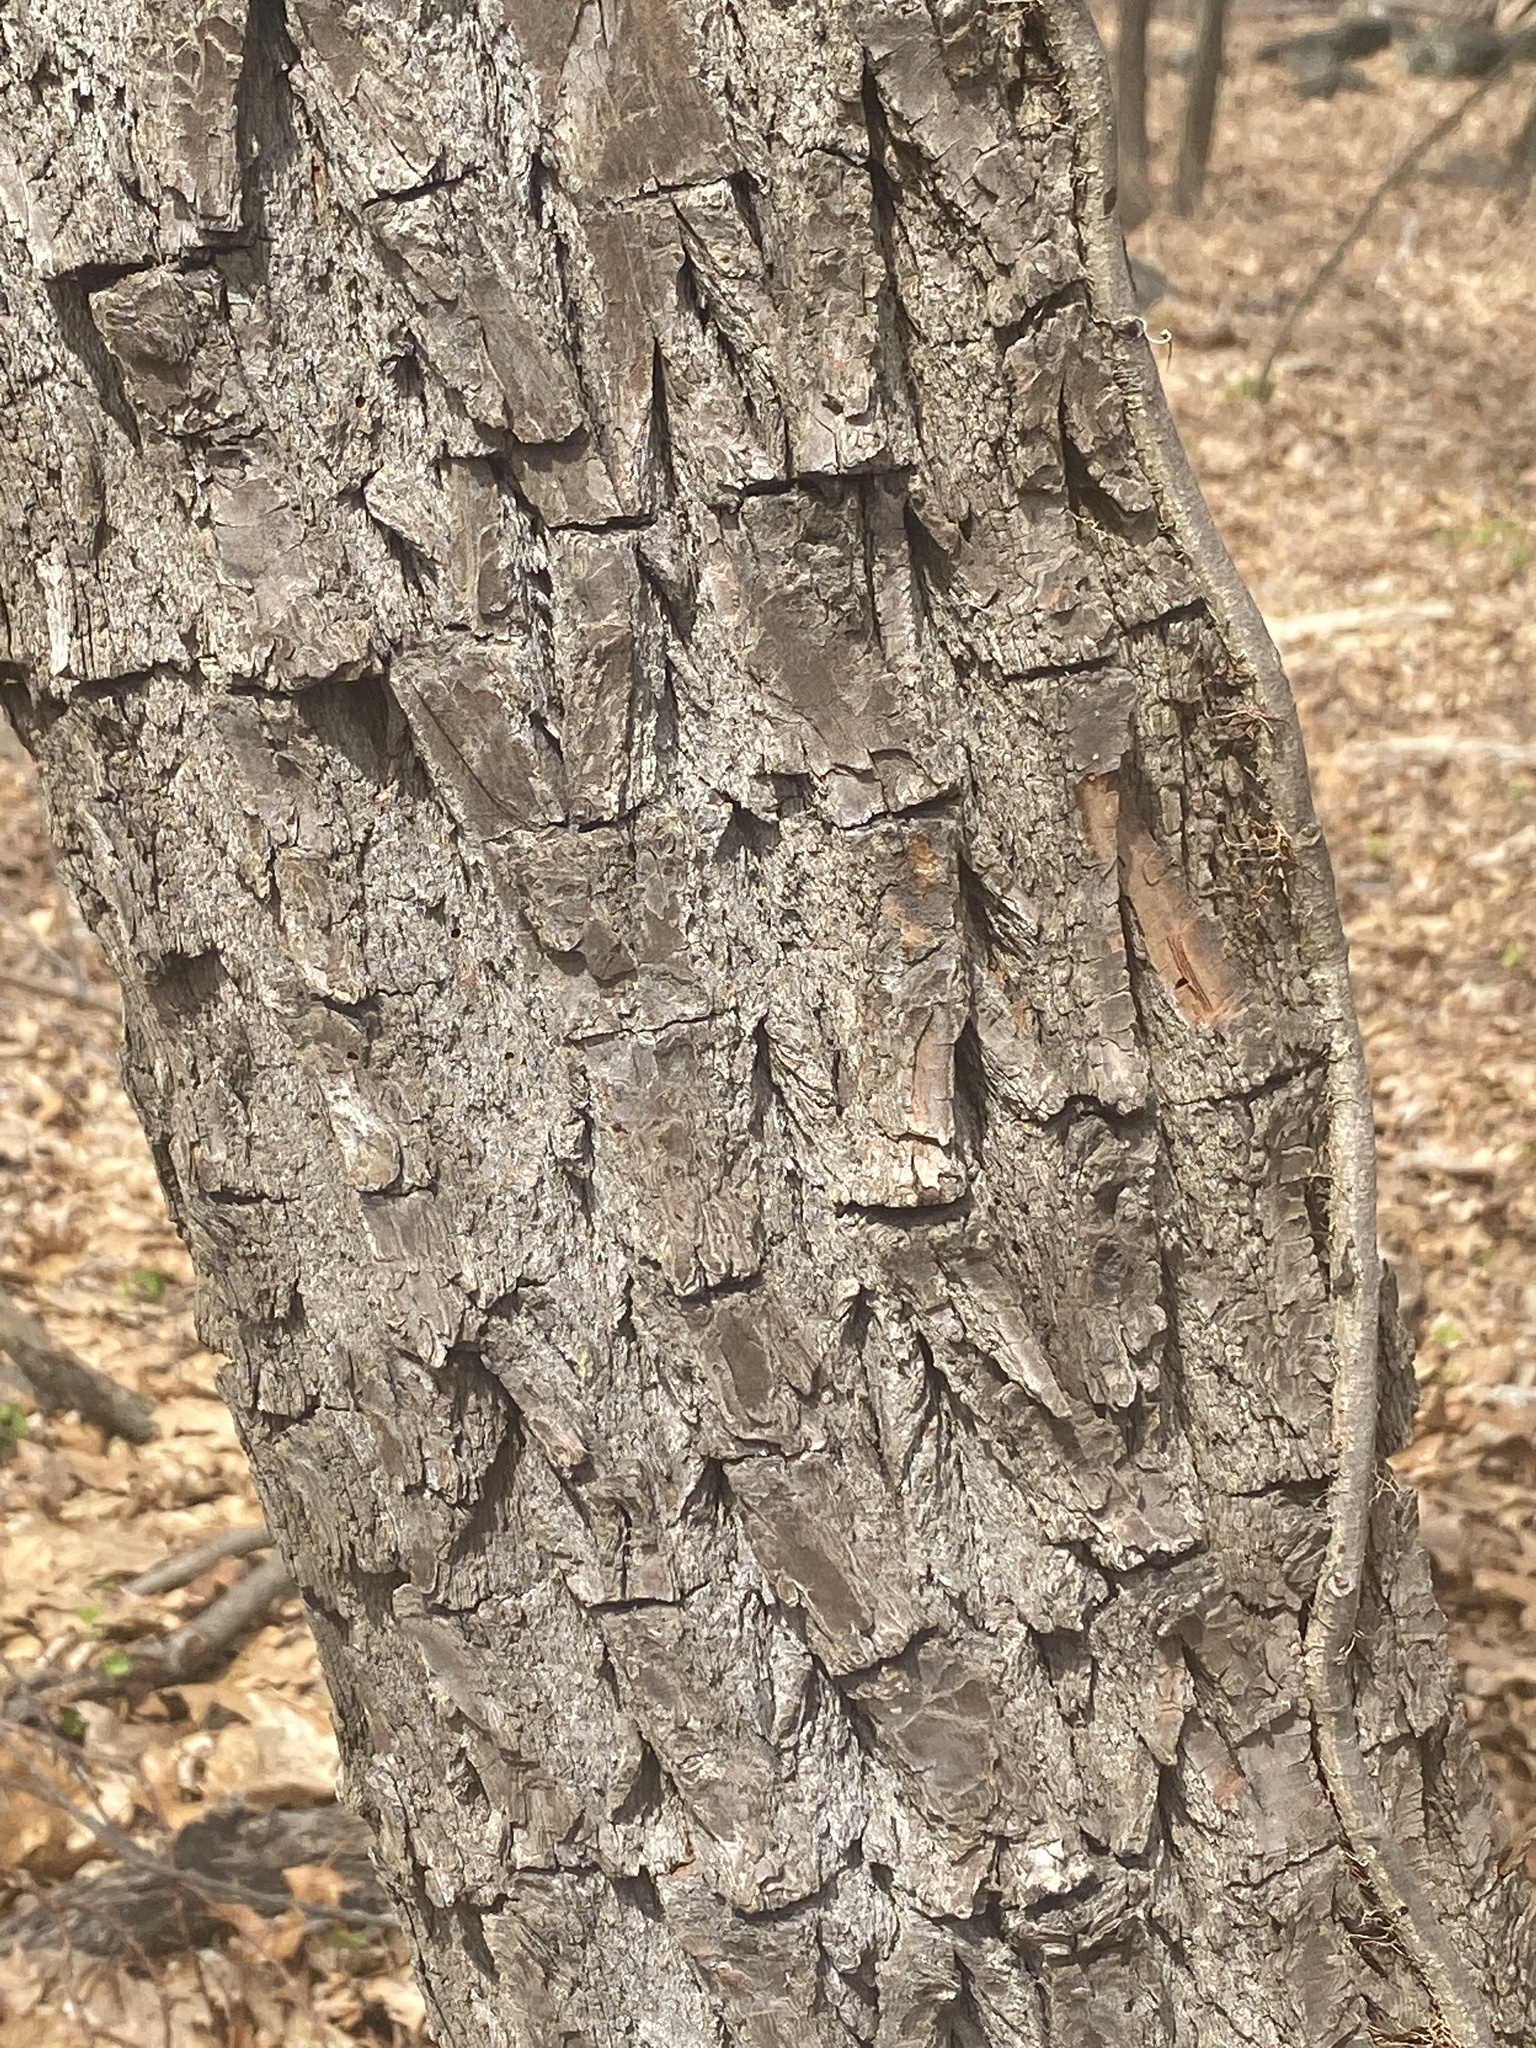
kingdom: Plantae
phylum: Tracheophyta
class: Magnoliopsida
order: Laurales
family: Lauraceae
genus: Sassafras
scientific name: Sassafras albidum
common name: Sassafras
